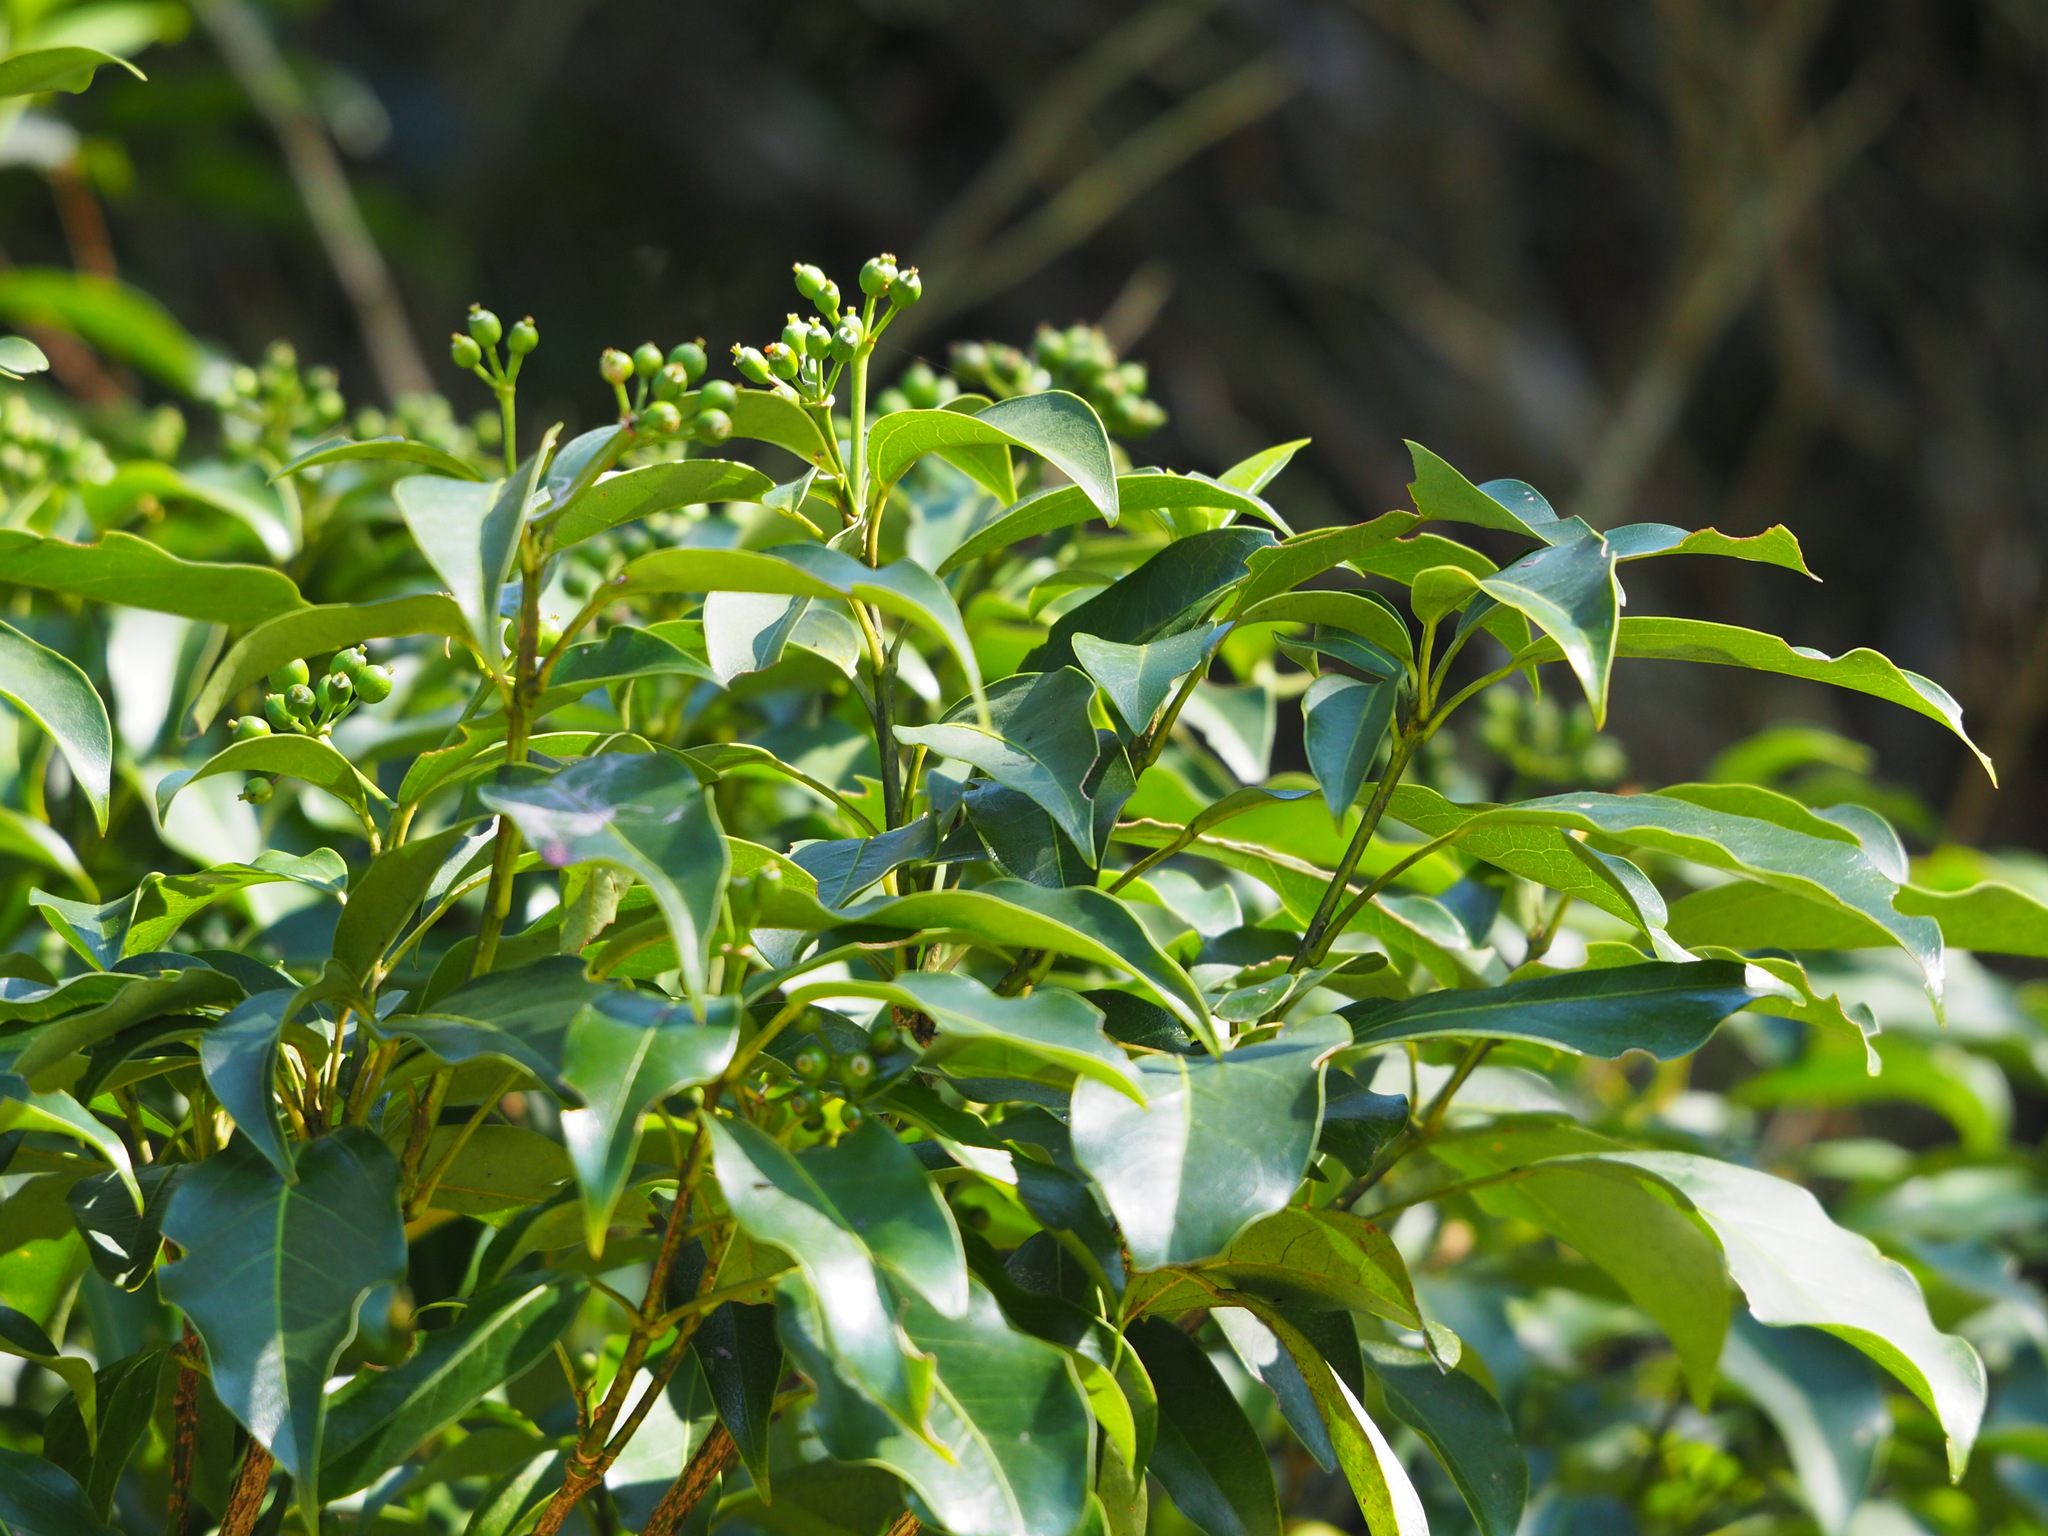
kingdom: Plantae
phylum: Tracheophyta
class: Magnoliopsida
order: Apiales
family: Araliaceae
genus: Dendropanax
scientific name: Dendropanax dentiger
